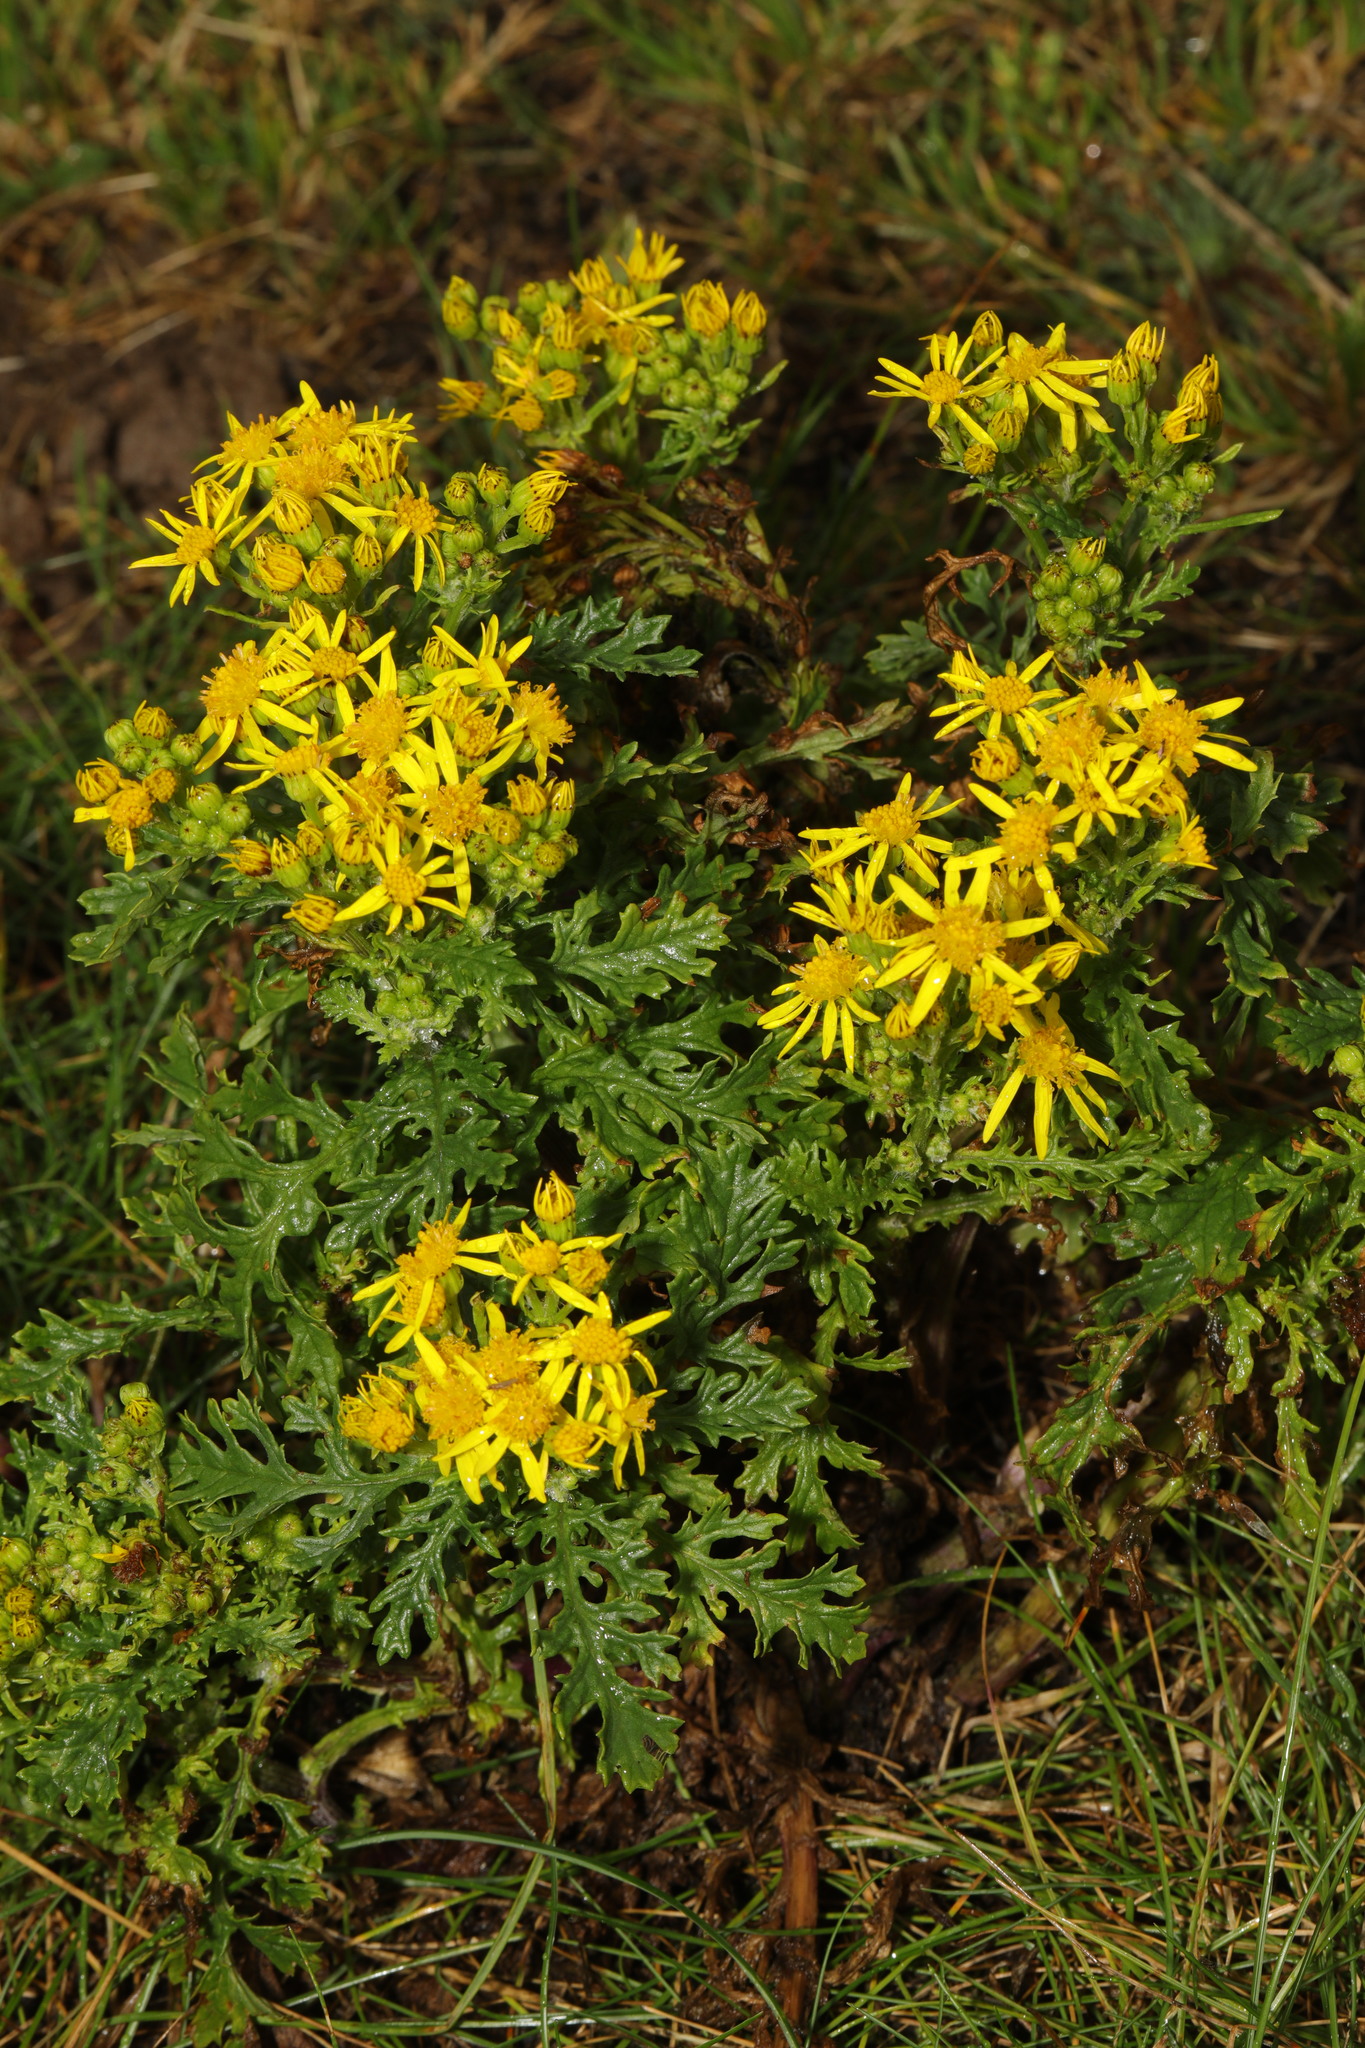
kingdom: Plantae
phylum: Tracheophyta
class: Magnoliopsida
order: Asterales
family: Asteraceae
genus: Jacobaea
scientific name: Jacobaea vulgaris
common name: Stinking willie
